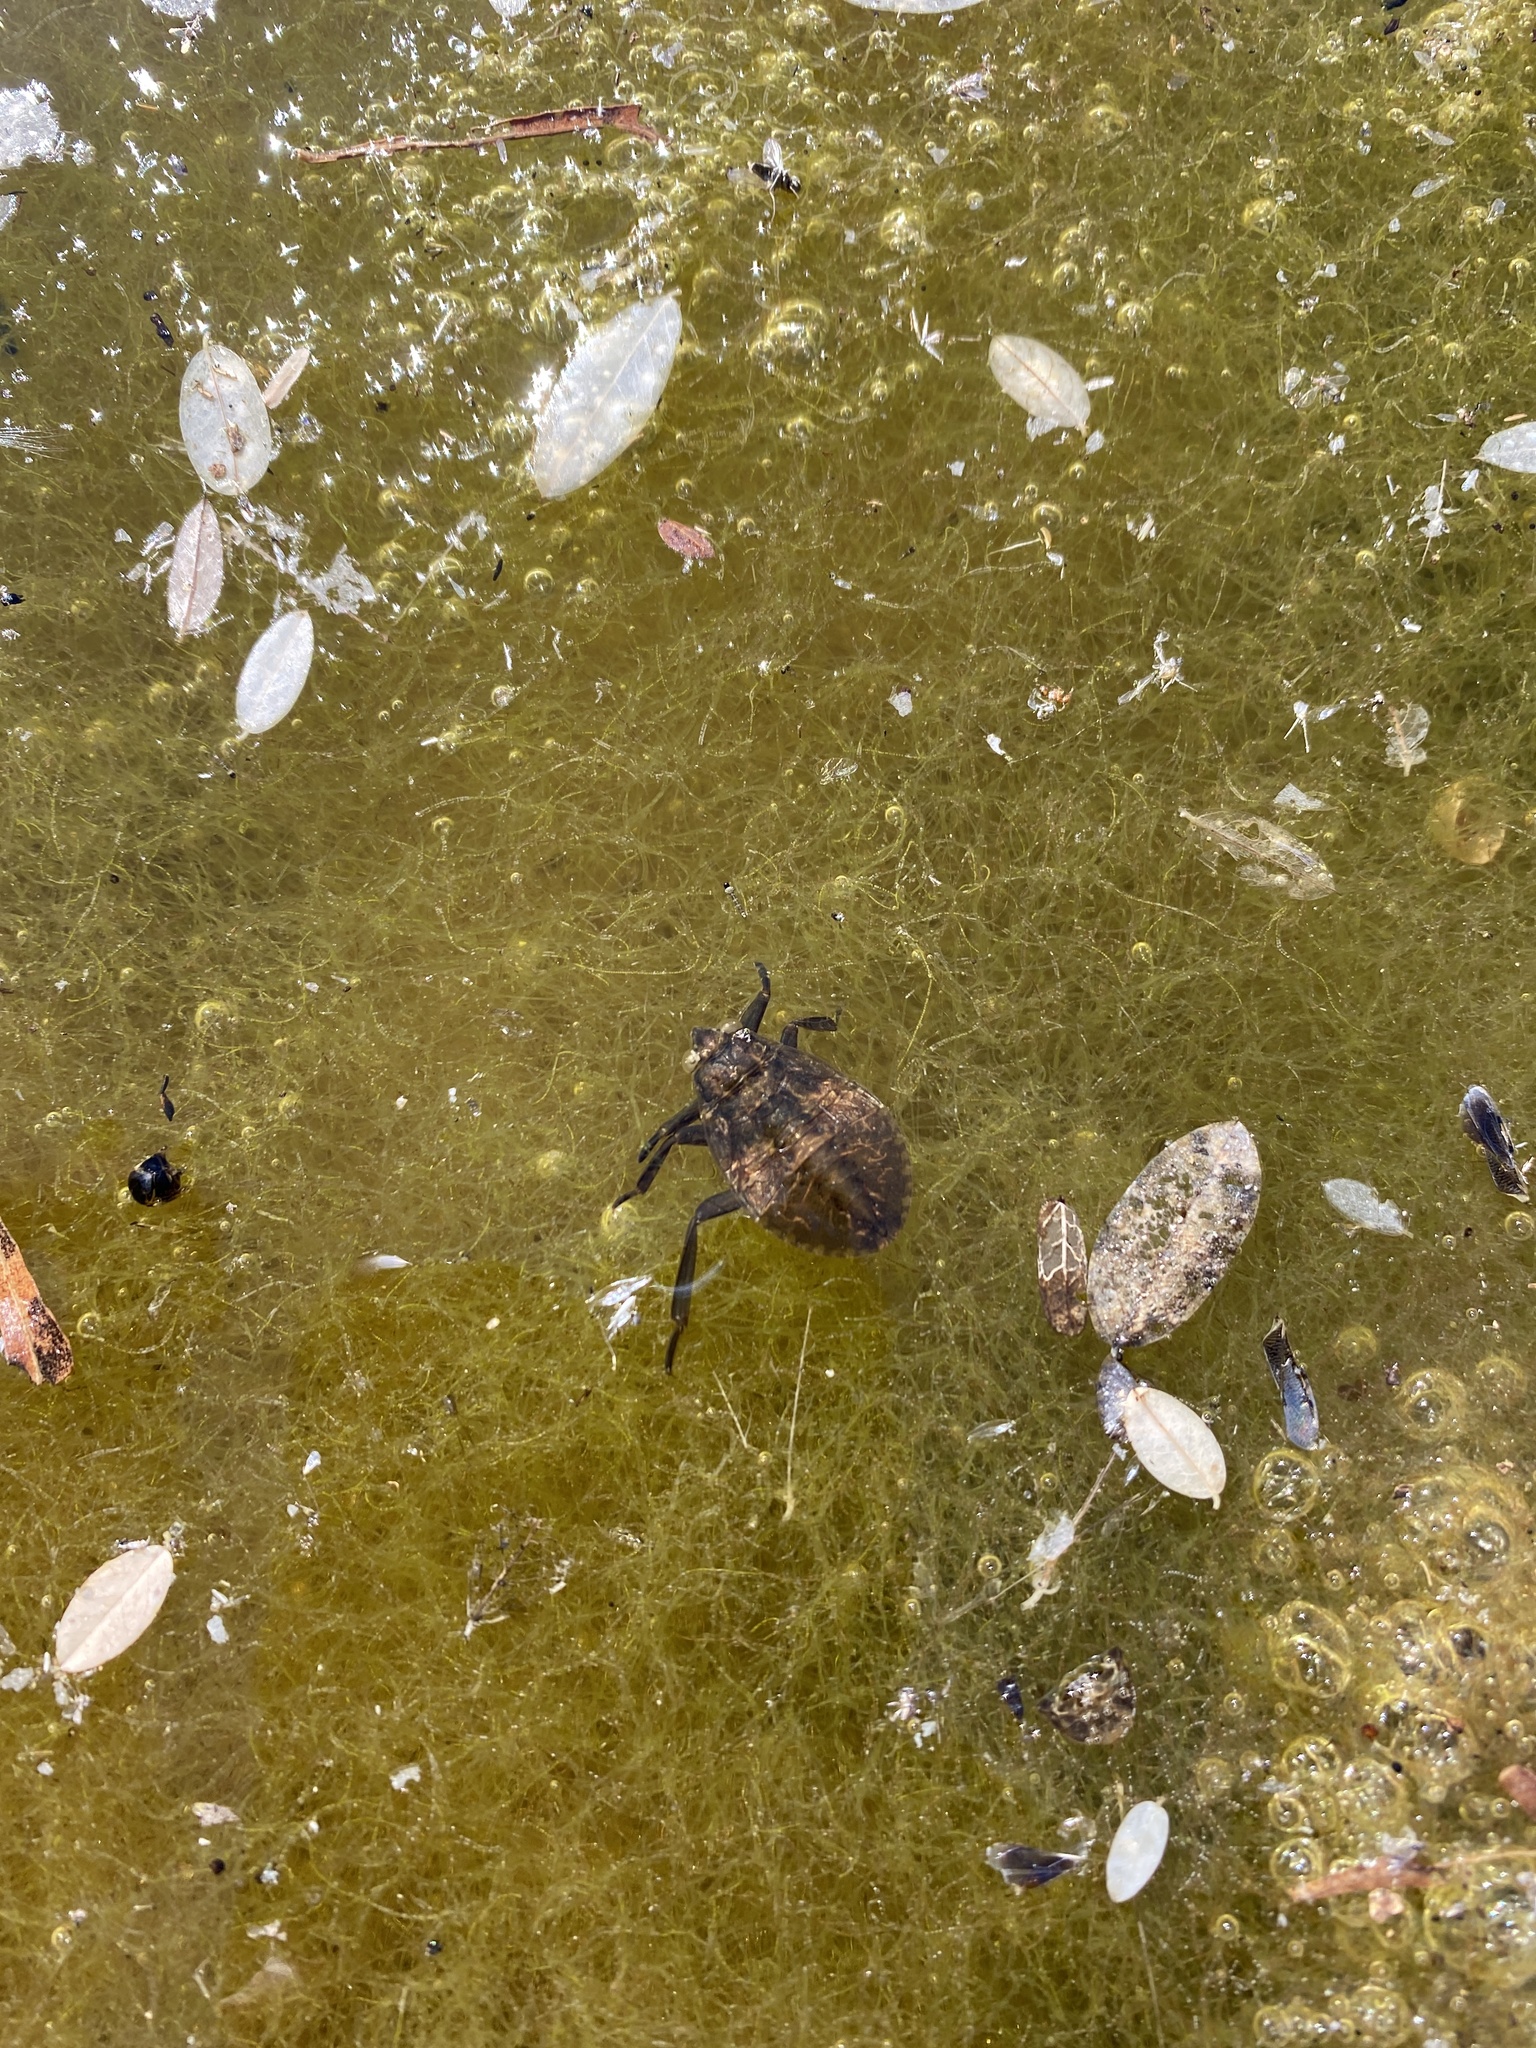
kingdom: Animalia
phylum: Arthropoda
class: Insecta
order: Hemiptera
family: Belostomatidae
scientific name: Belostomatidae
